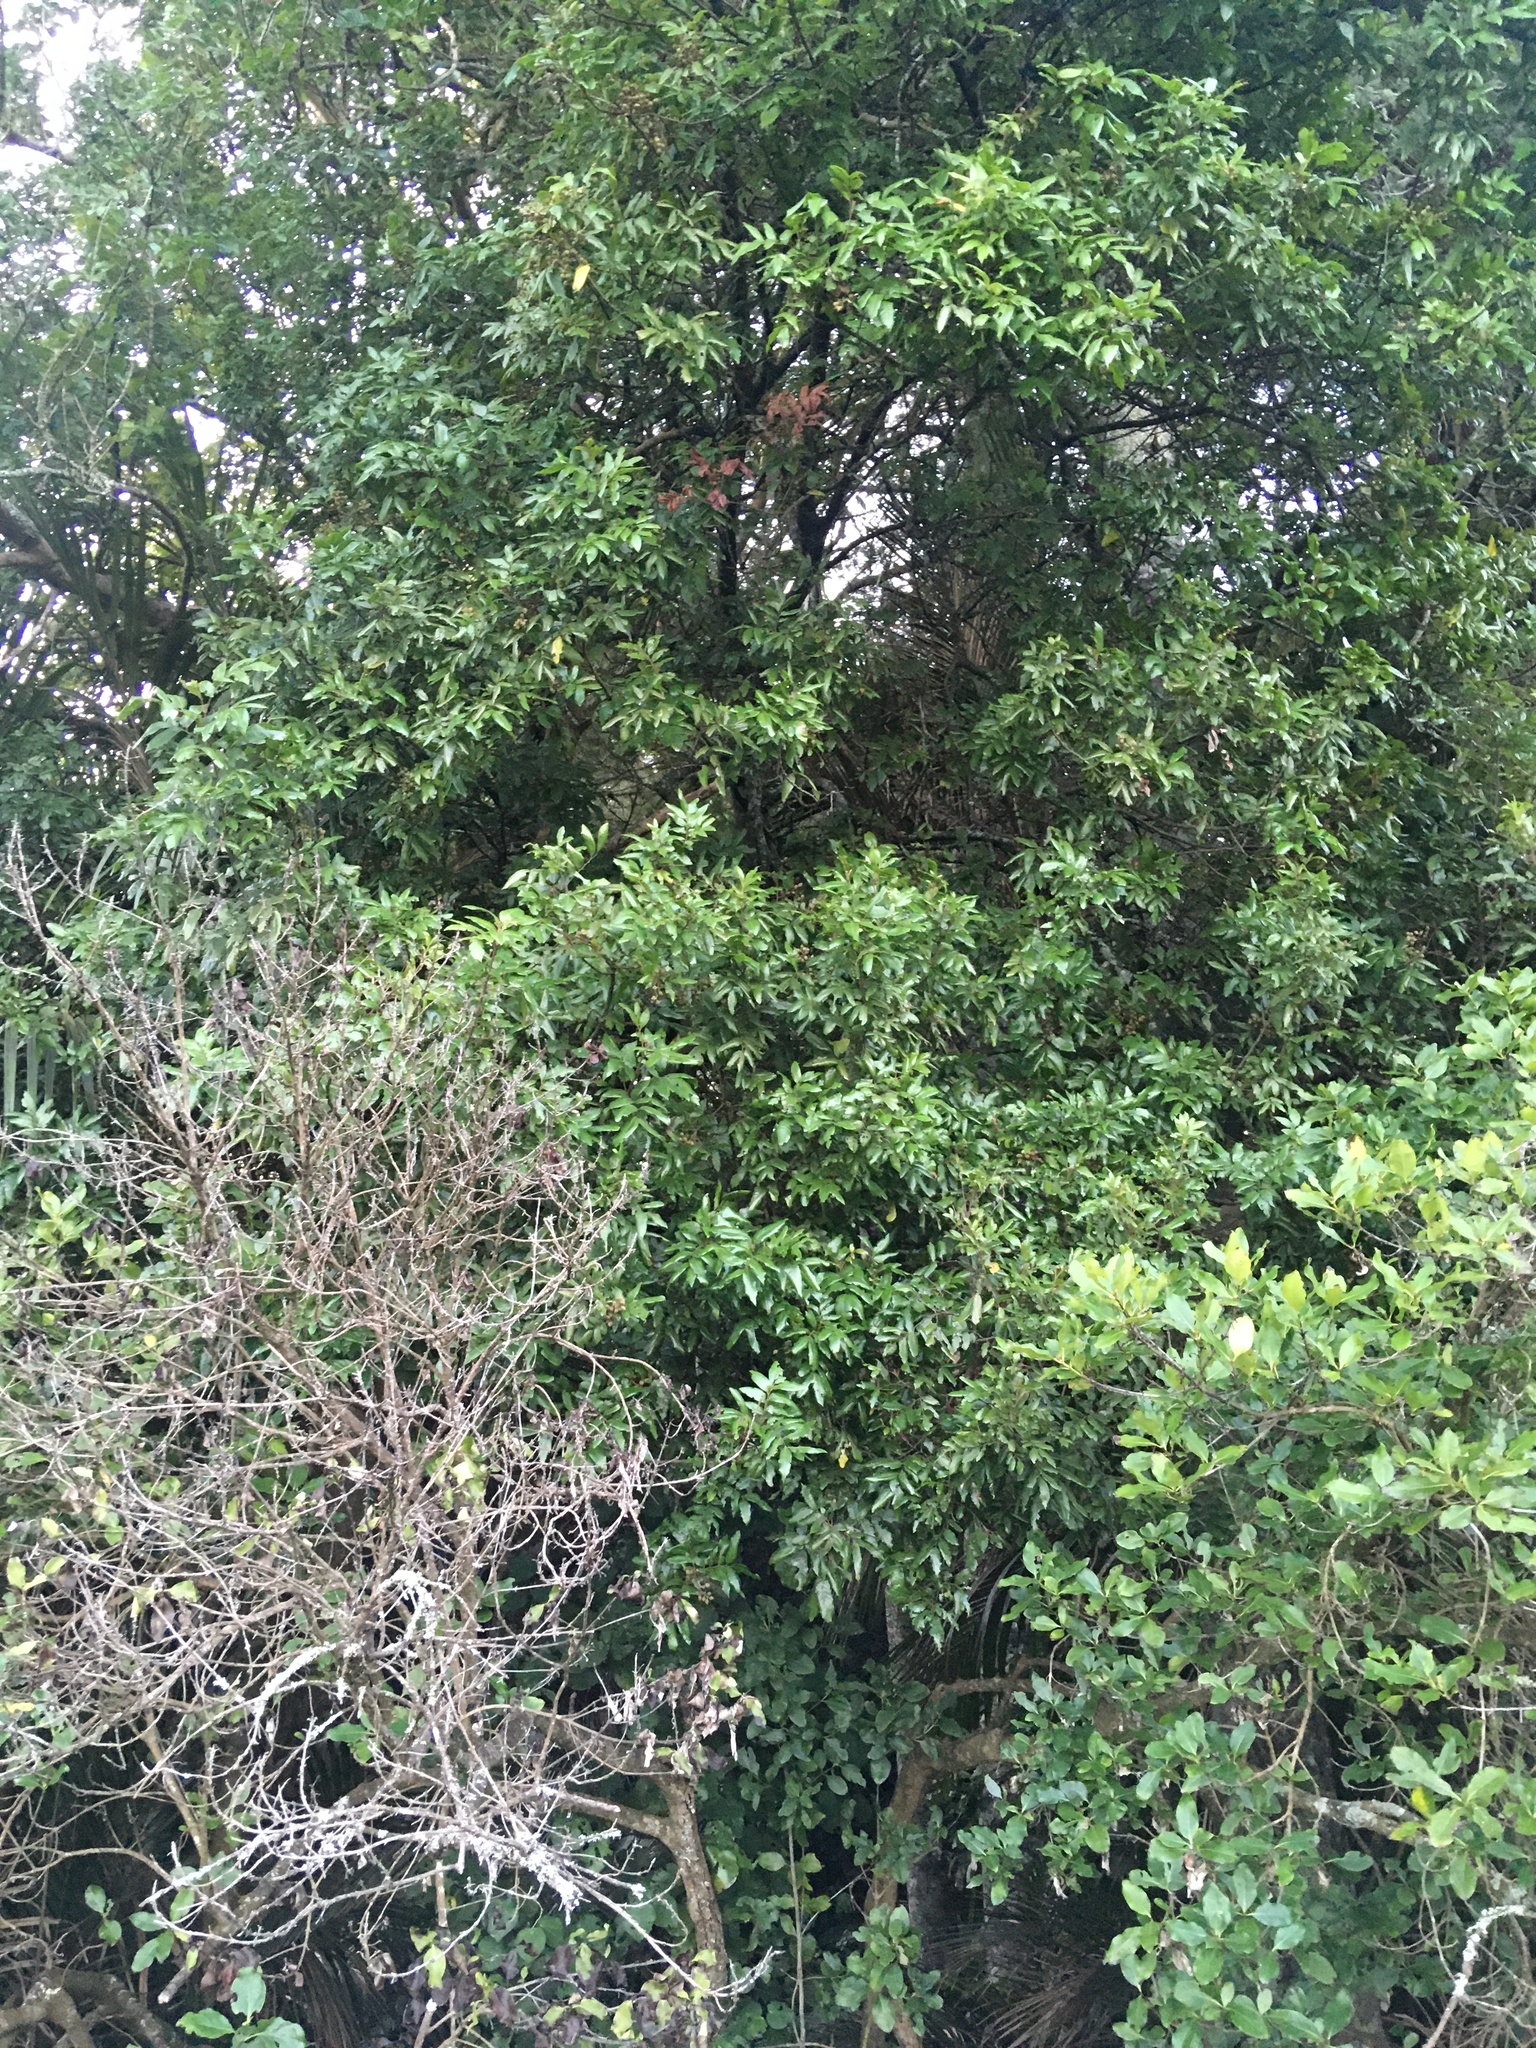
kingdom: Plantae
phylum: Tracheophyta
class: Magnoliopsida
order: Sapindales
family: Sapindaceae
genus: Alectryon
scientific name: Alectryon excelsus
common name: Three kings titoki
